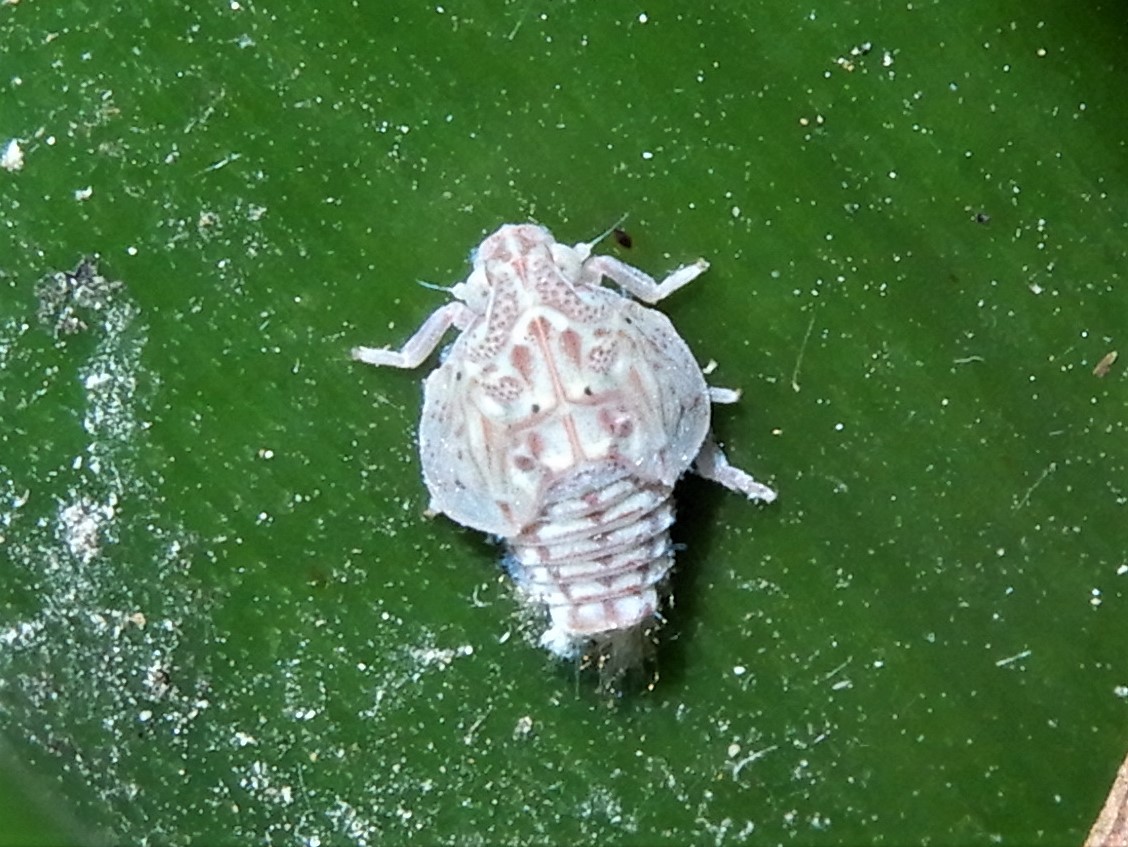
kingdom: Animalia
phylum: Arthropoda
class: Insecta
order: Hemiptera
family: Flatidae
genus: Siphanta
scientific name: Siphanta acuta
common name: Torpedo bug
